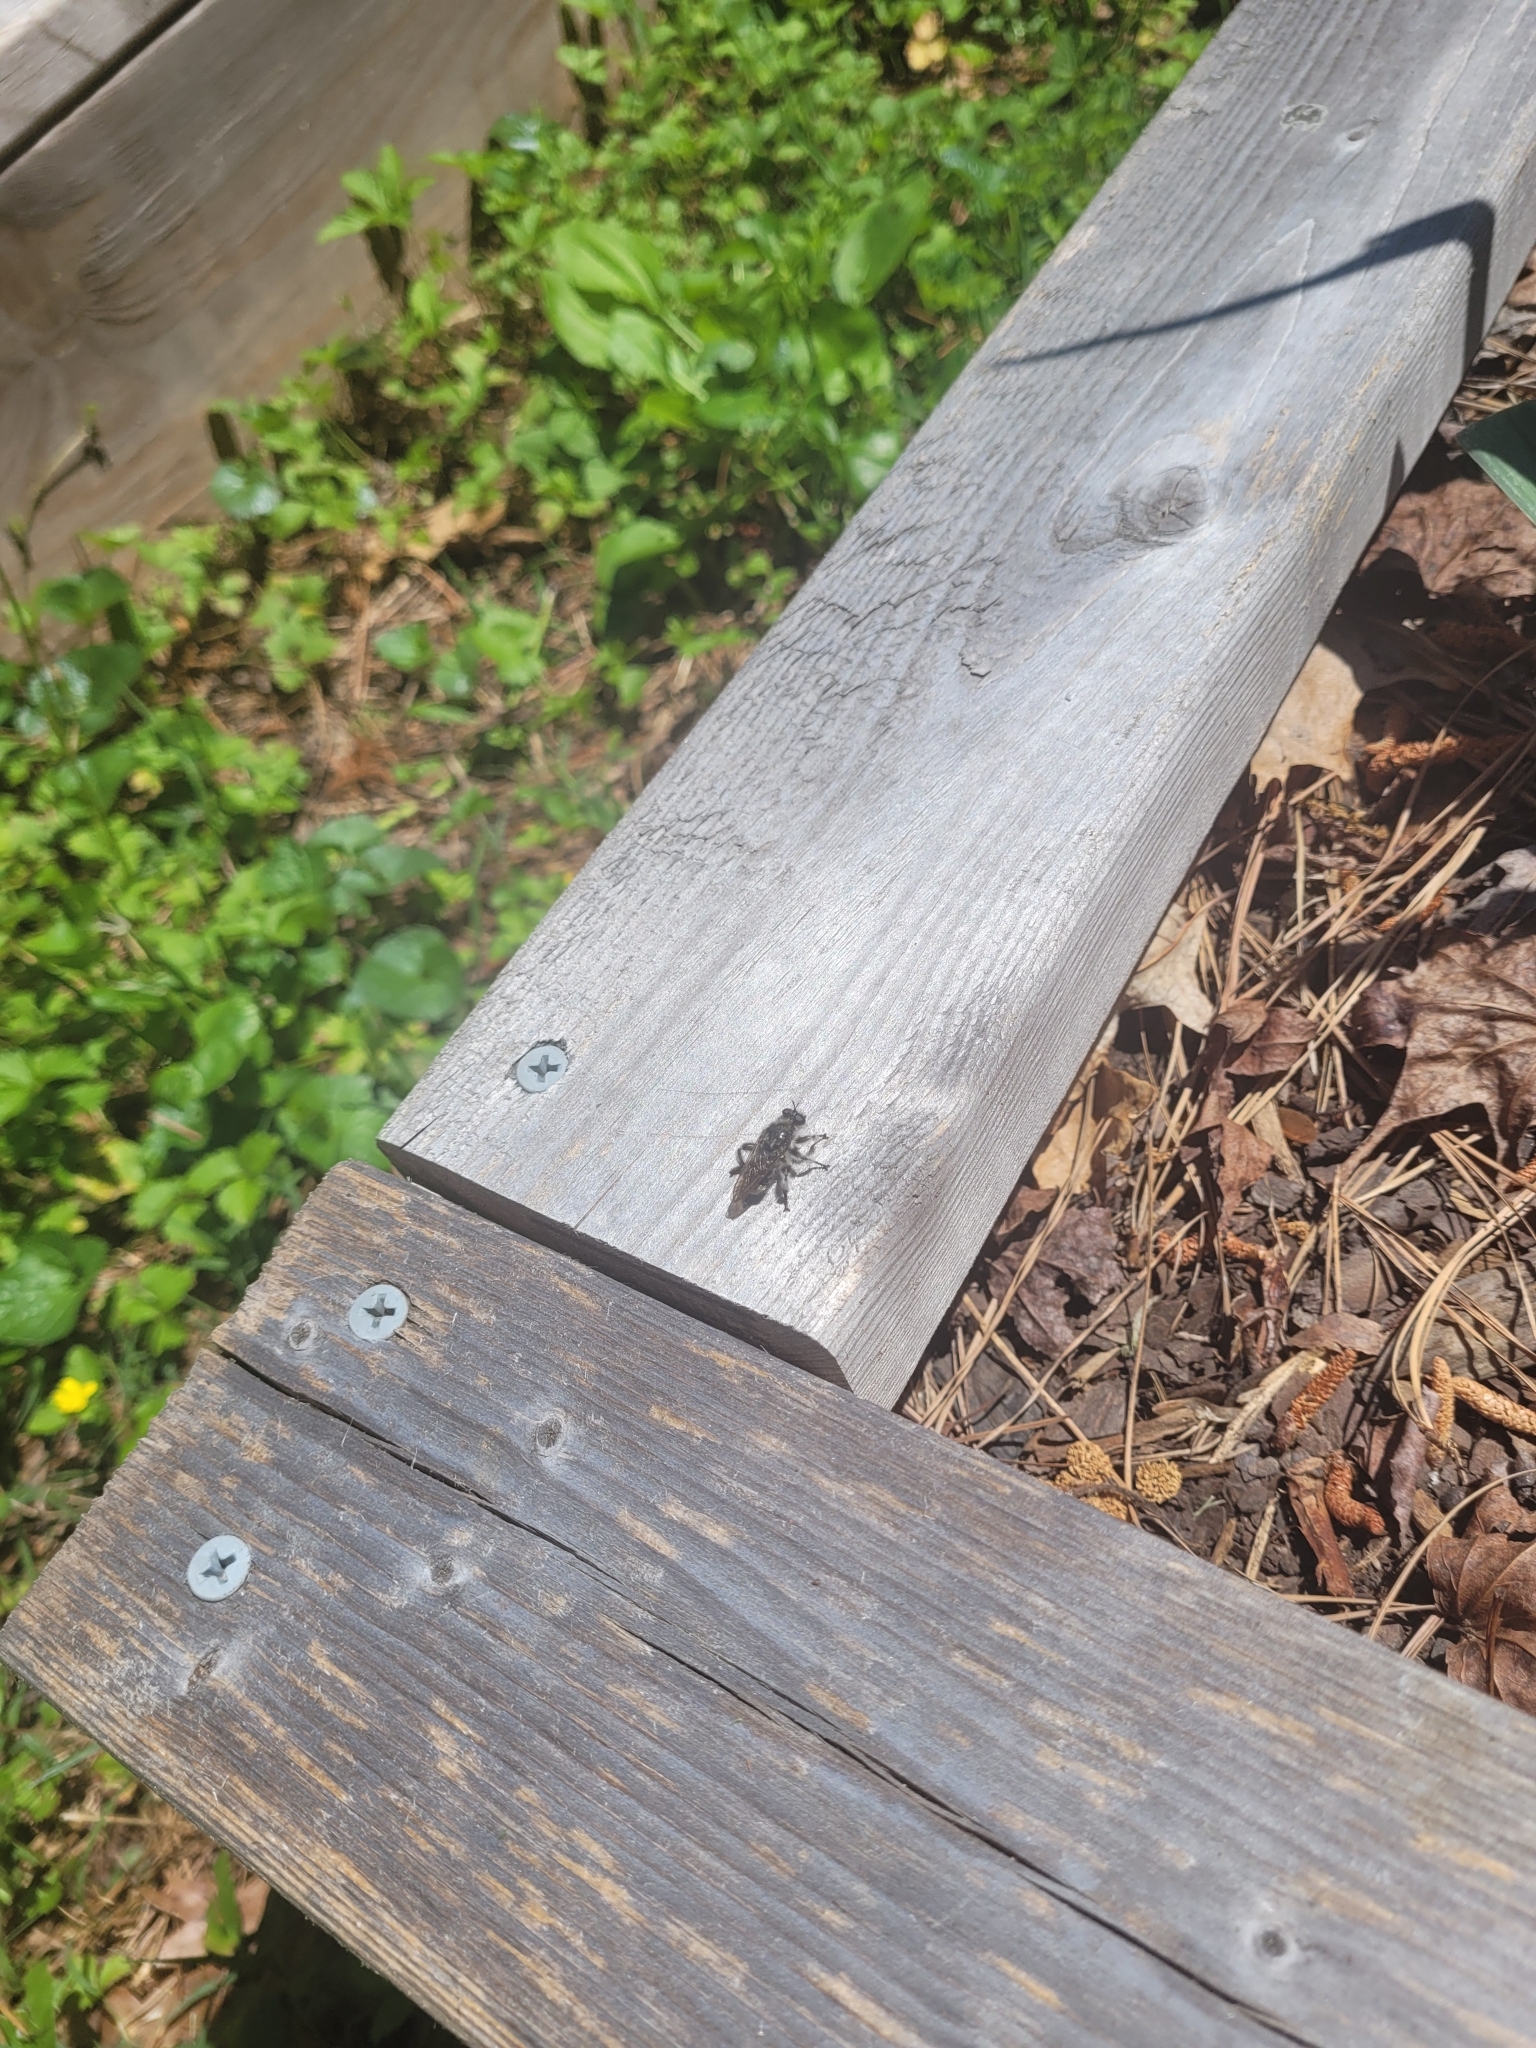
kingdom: Animalia
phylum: Arthropoda
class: Insecta
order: Diptera
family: Asilidae
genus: Laphria
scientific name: Laphria cinerea
